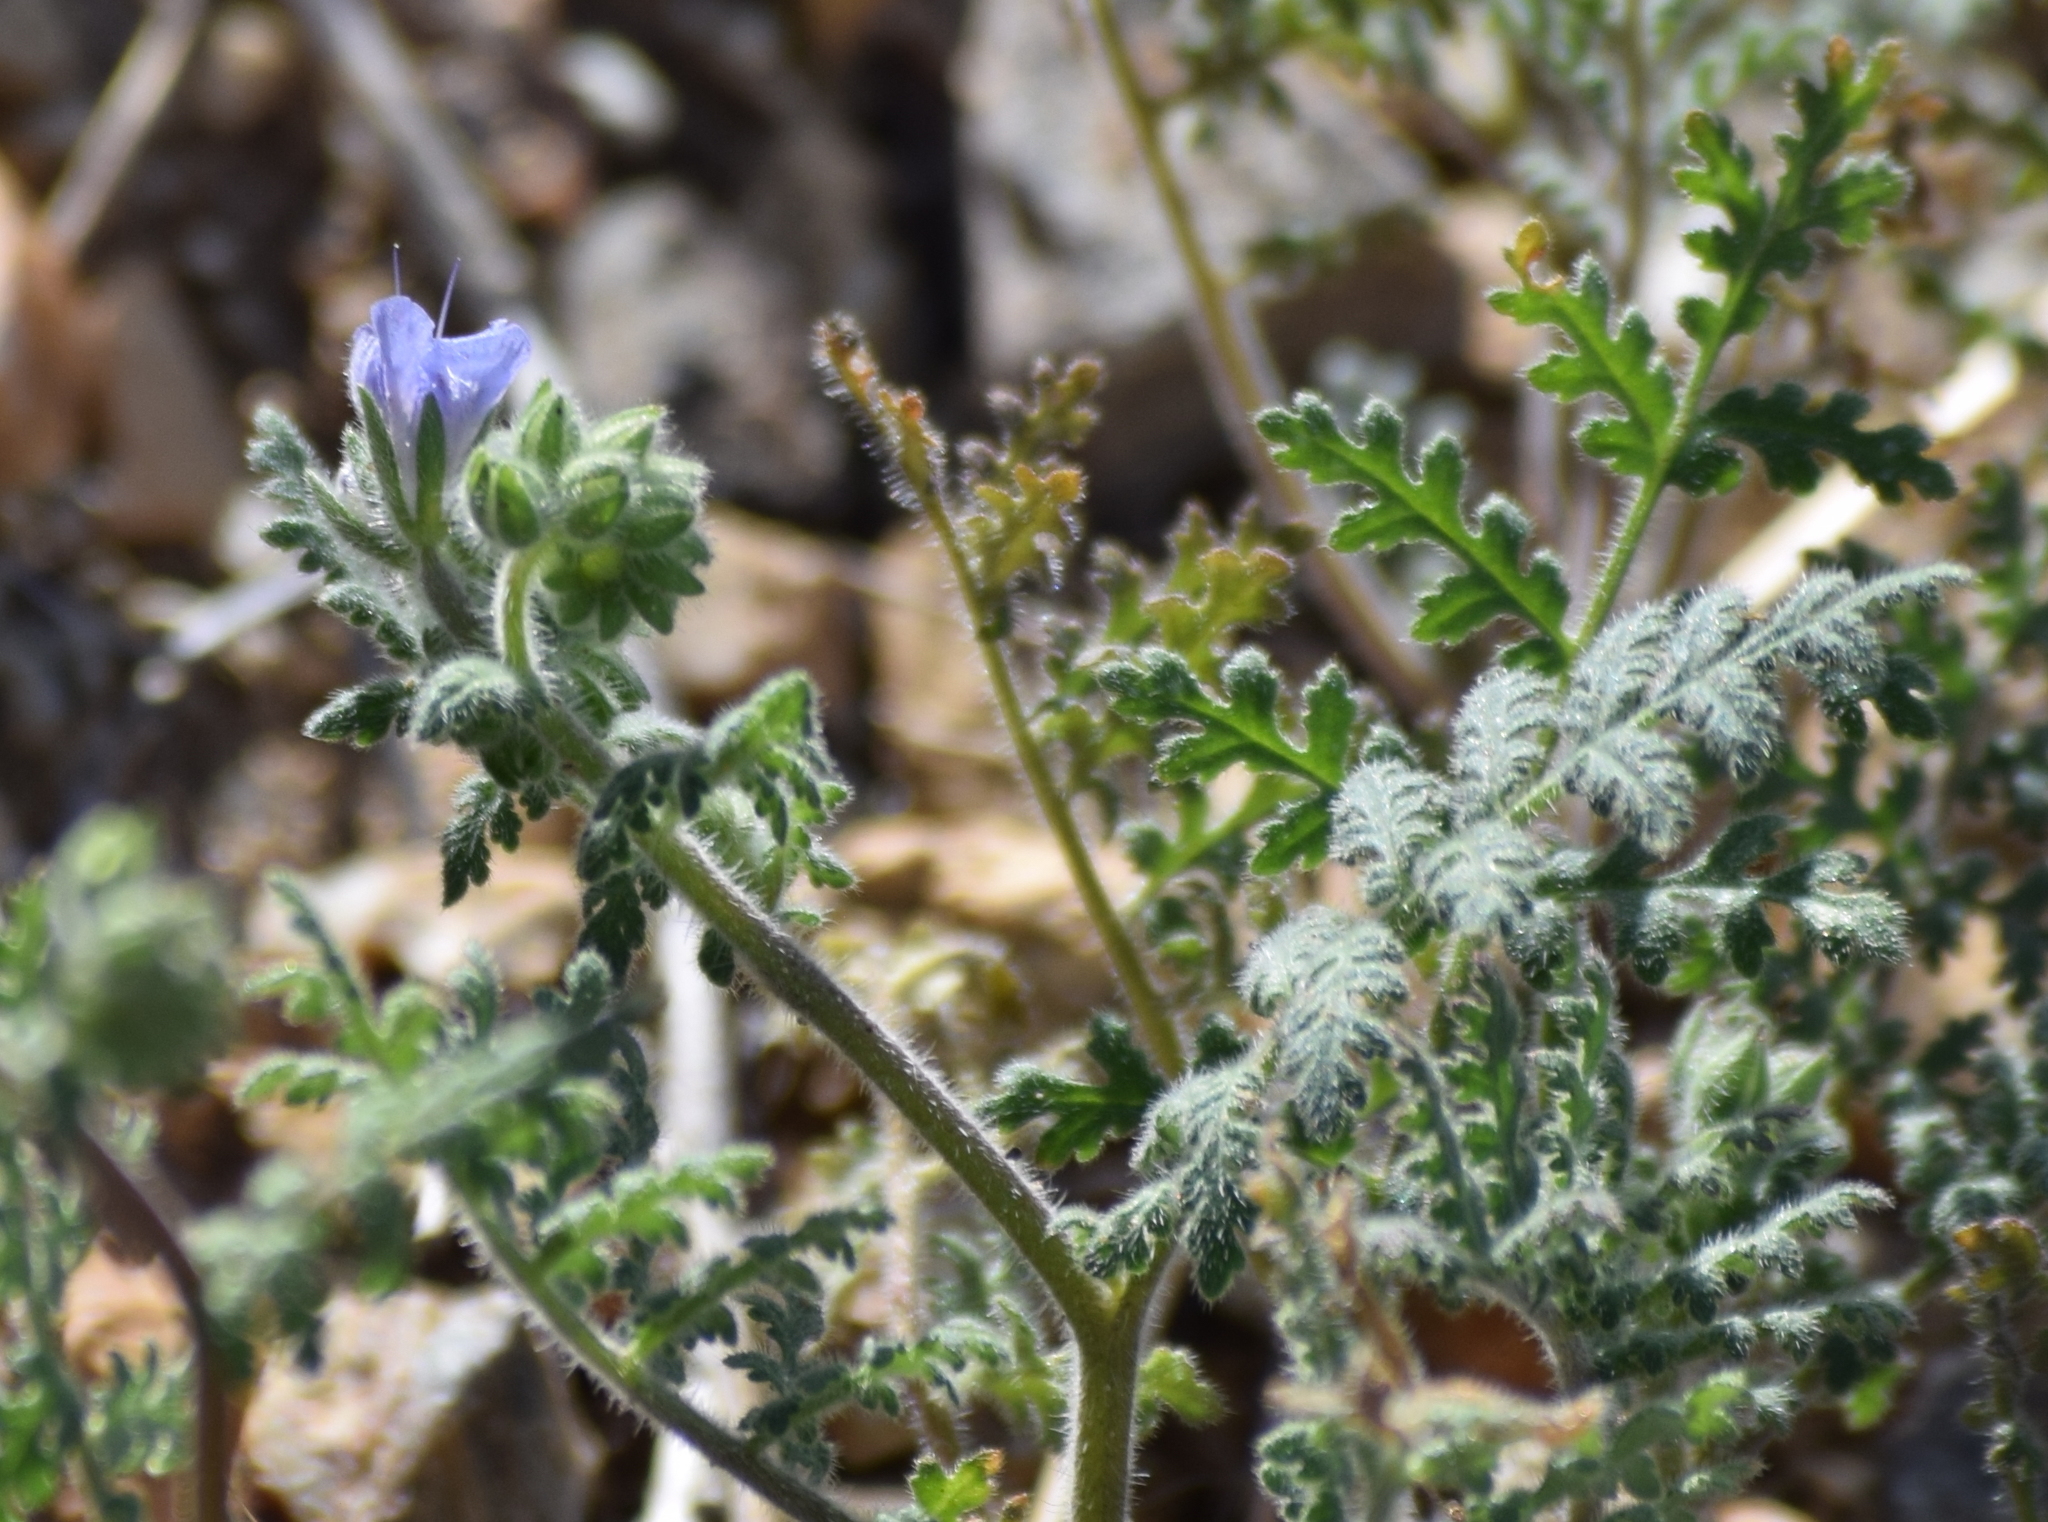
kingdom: Plantae
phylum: Tracheophyta
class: Magnoliopsida
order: Boraginales
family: Hydrophyllaceae
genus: Phacelia
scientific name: Phacelia distans
